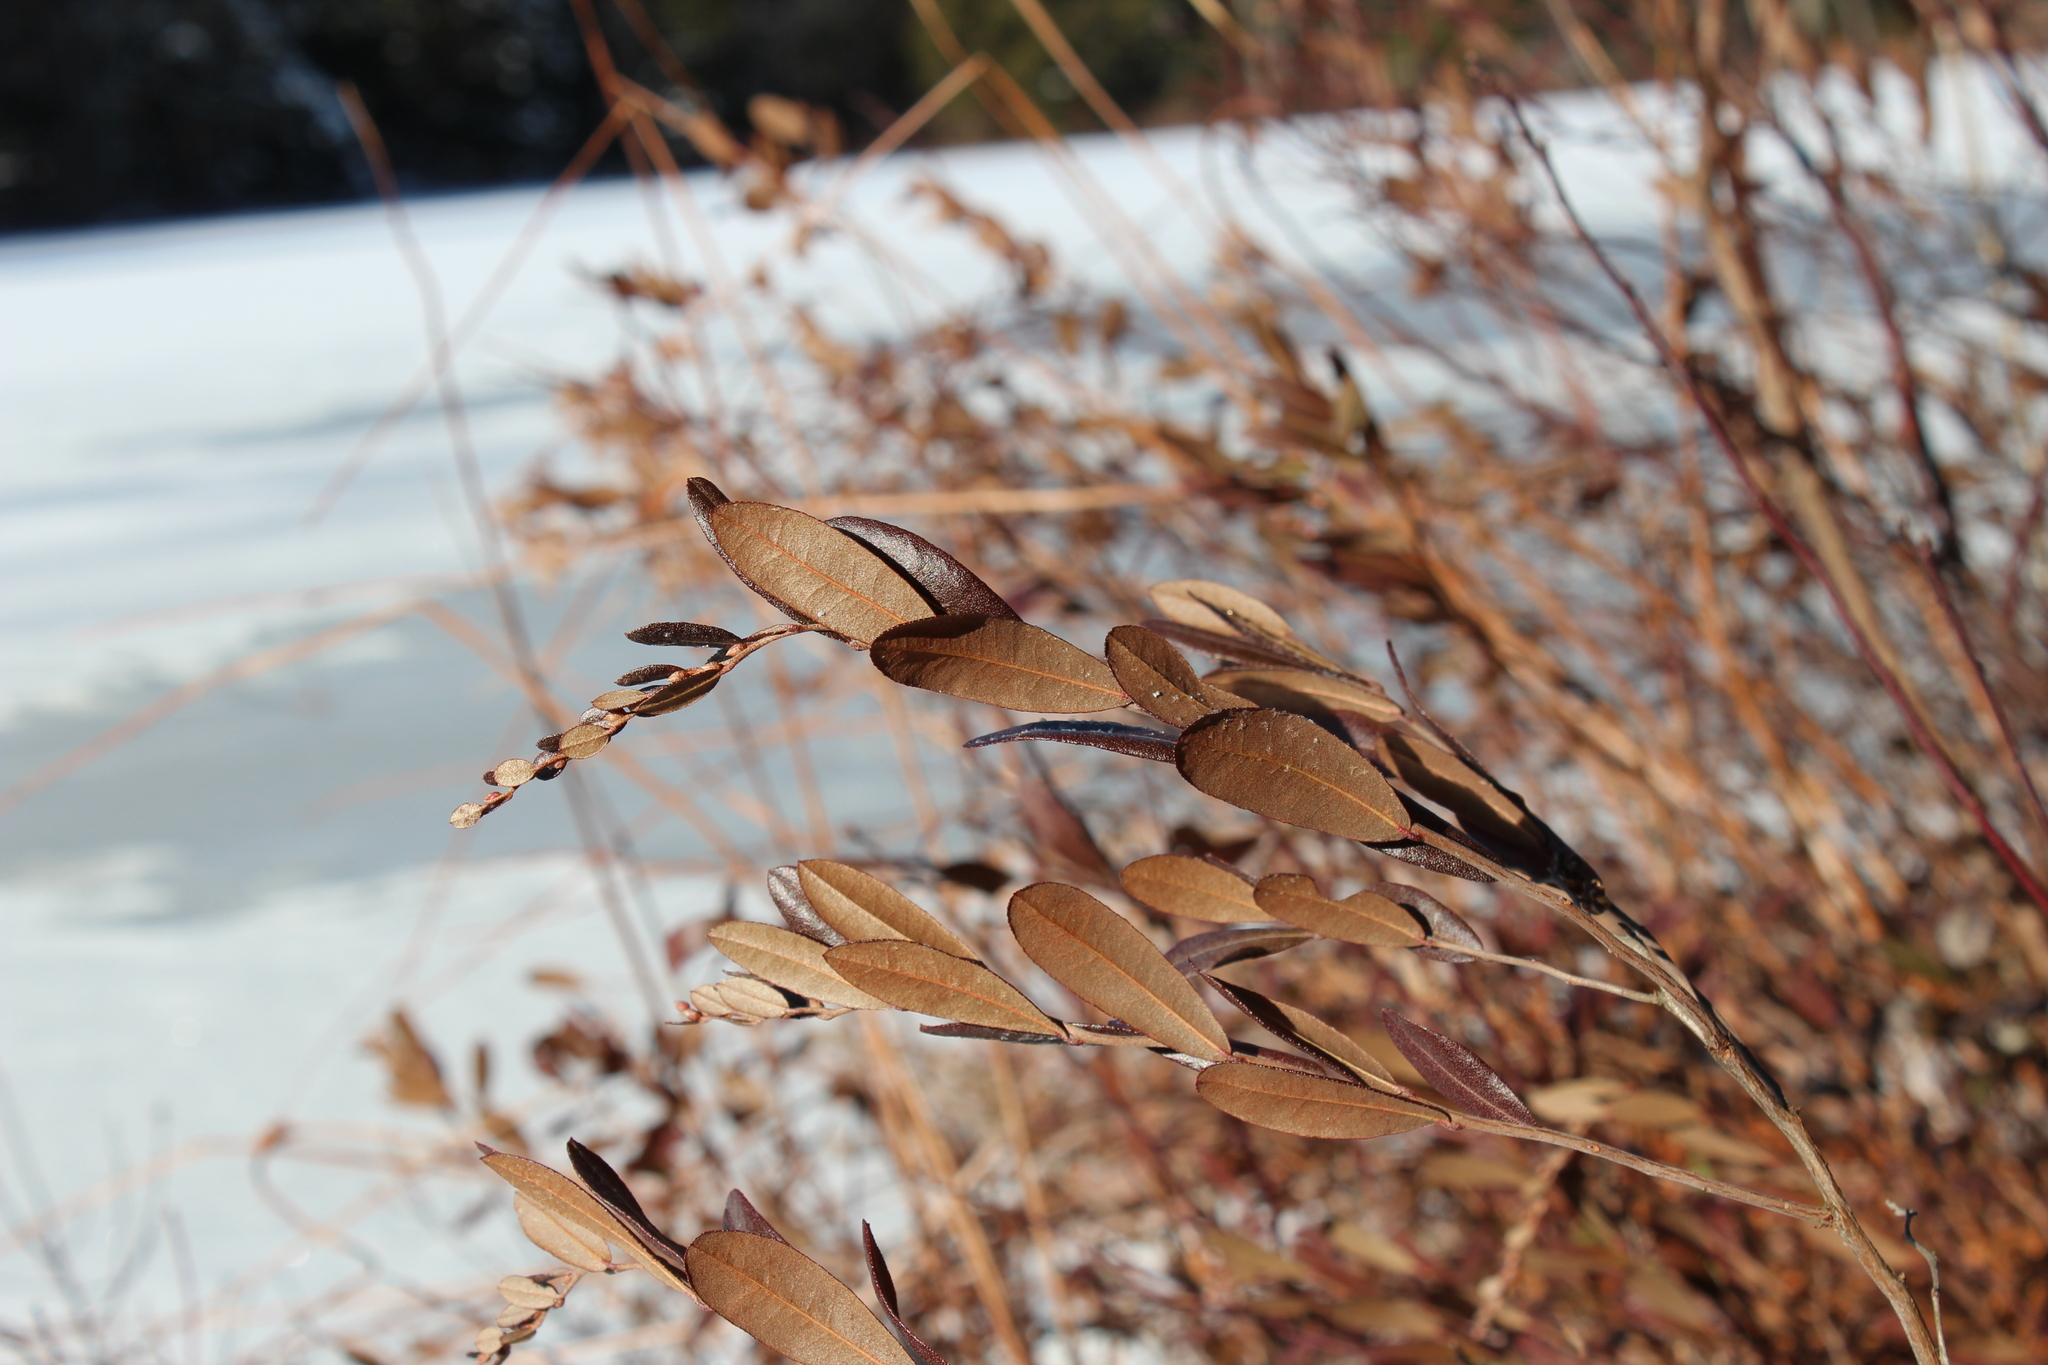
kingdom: Plantae
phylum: Tracheophyta
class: Magnoliopsida
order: Ericales
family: Ericaceae
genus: Chamaedaphne
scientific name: Chamaedaphne calyculata
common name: Leatherleaf
